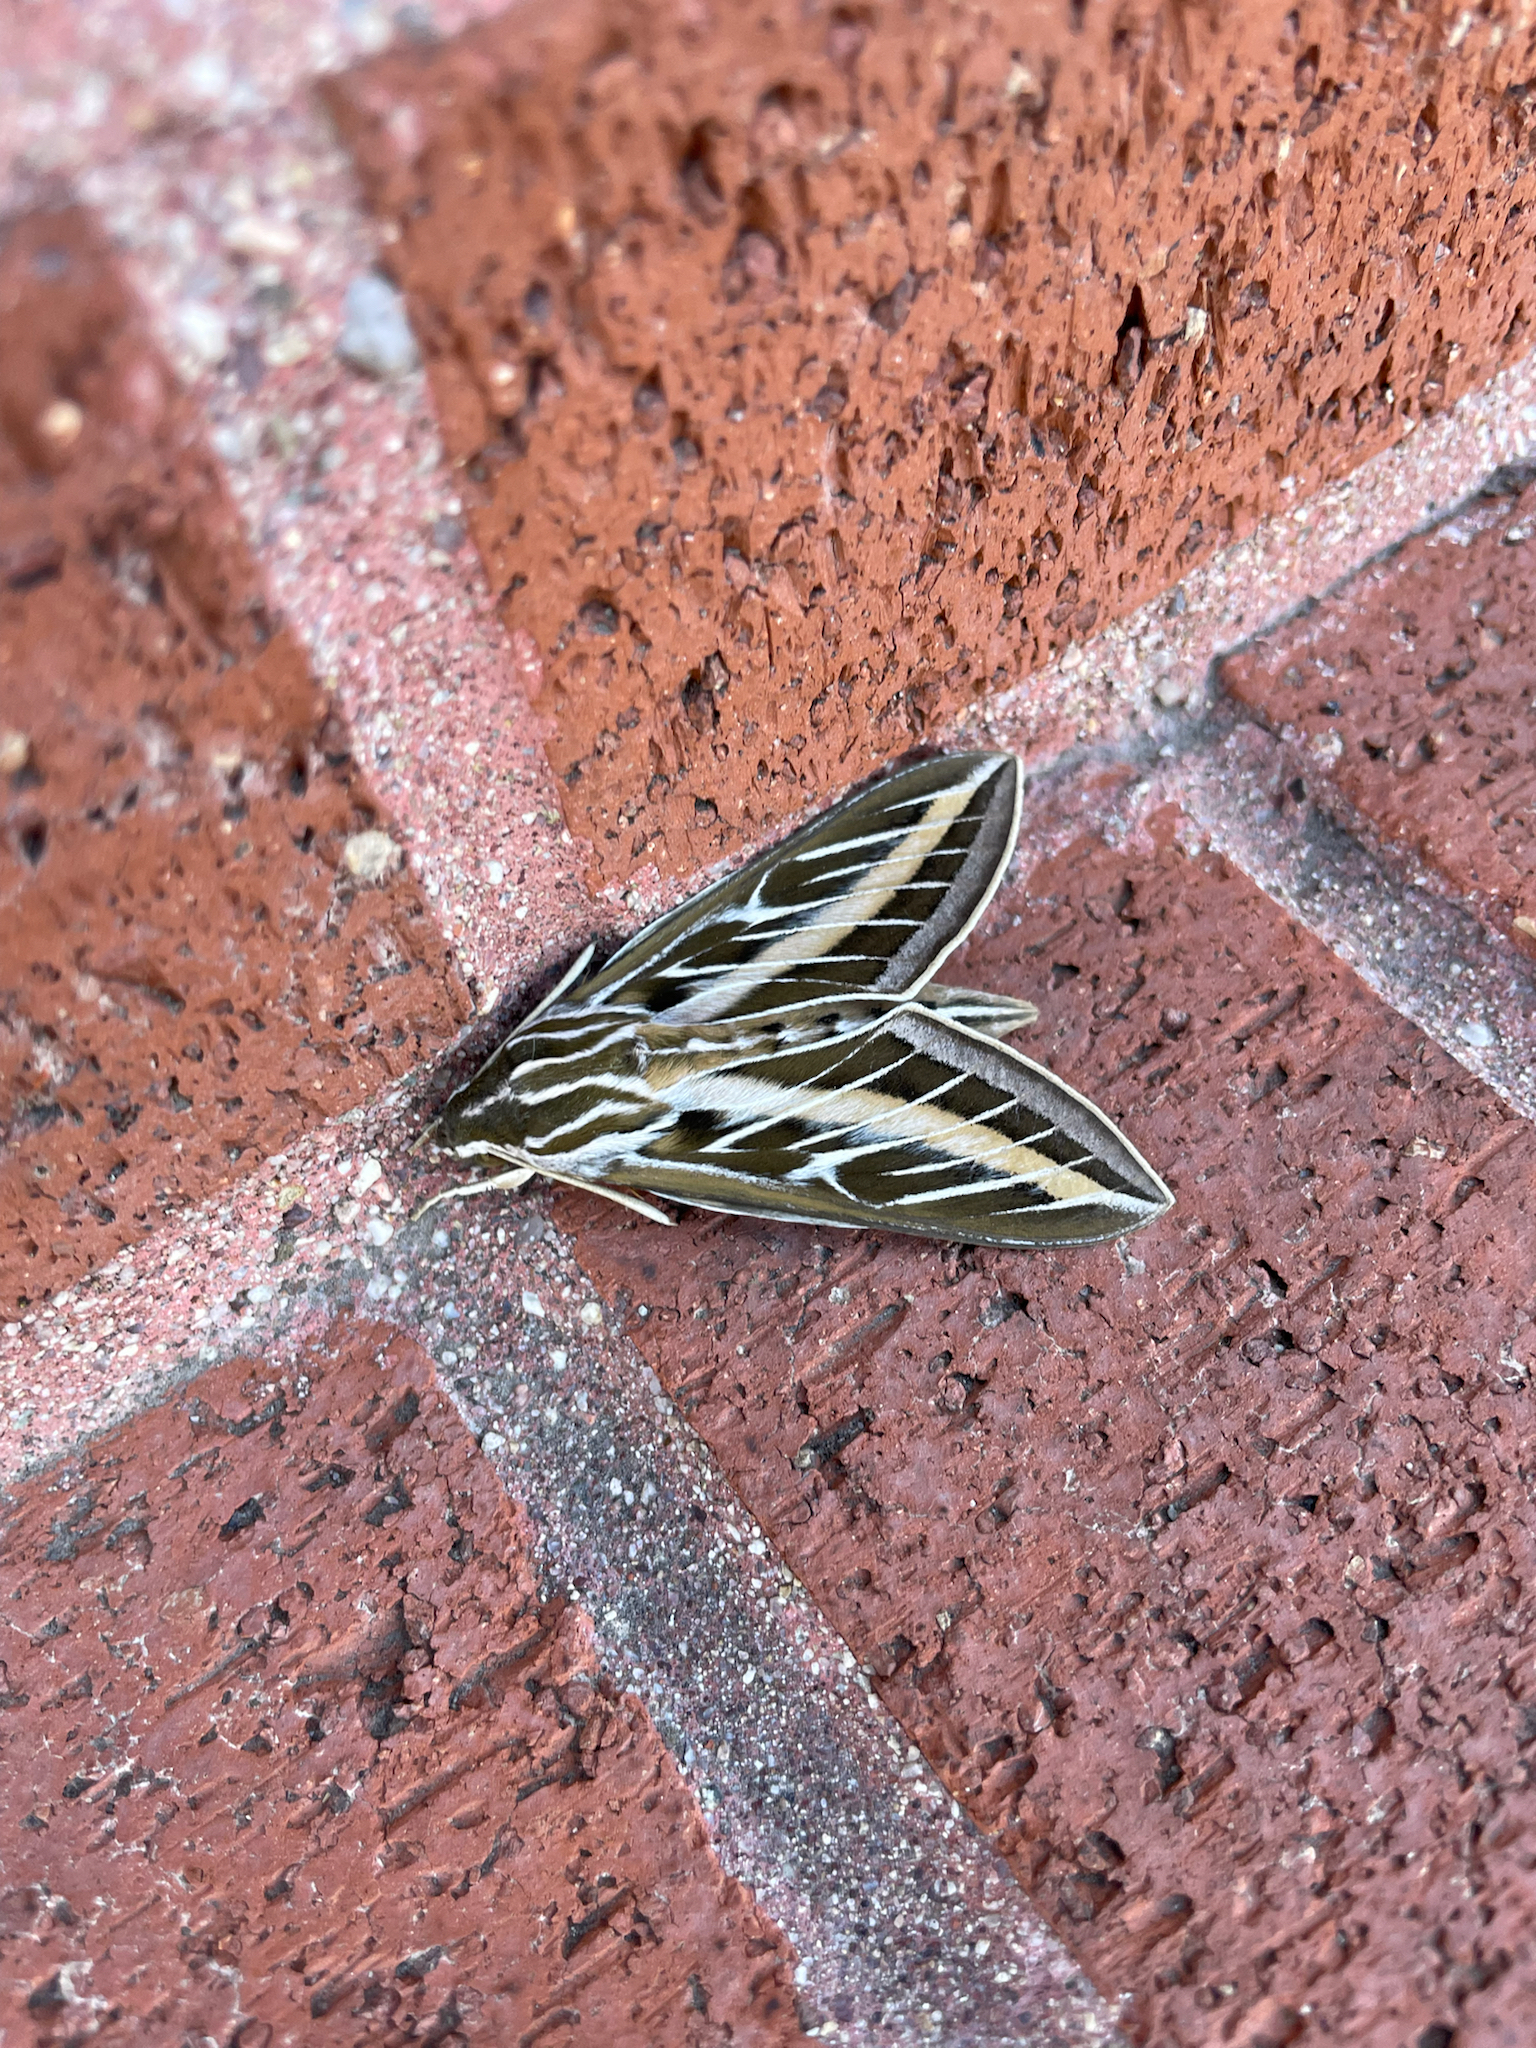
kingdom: Animalia
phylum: Arthropoda
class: Insecta
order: Lepidoptera
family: Sphingidae
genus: Hyles
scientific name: Hyles lineata
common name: White-lined sphinx
